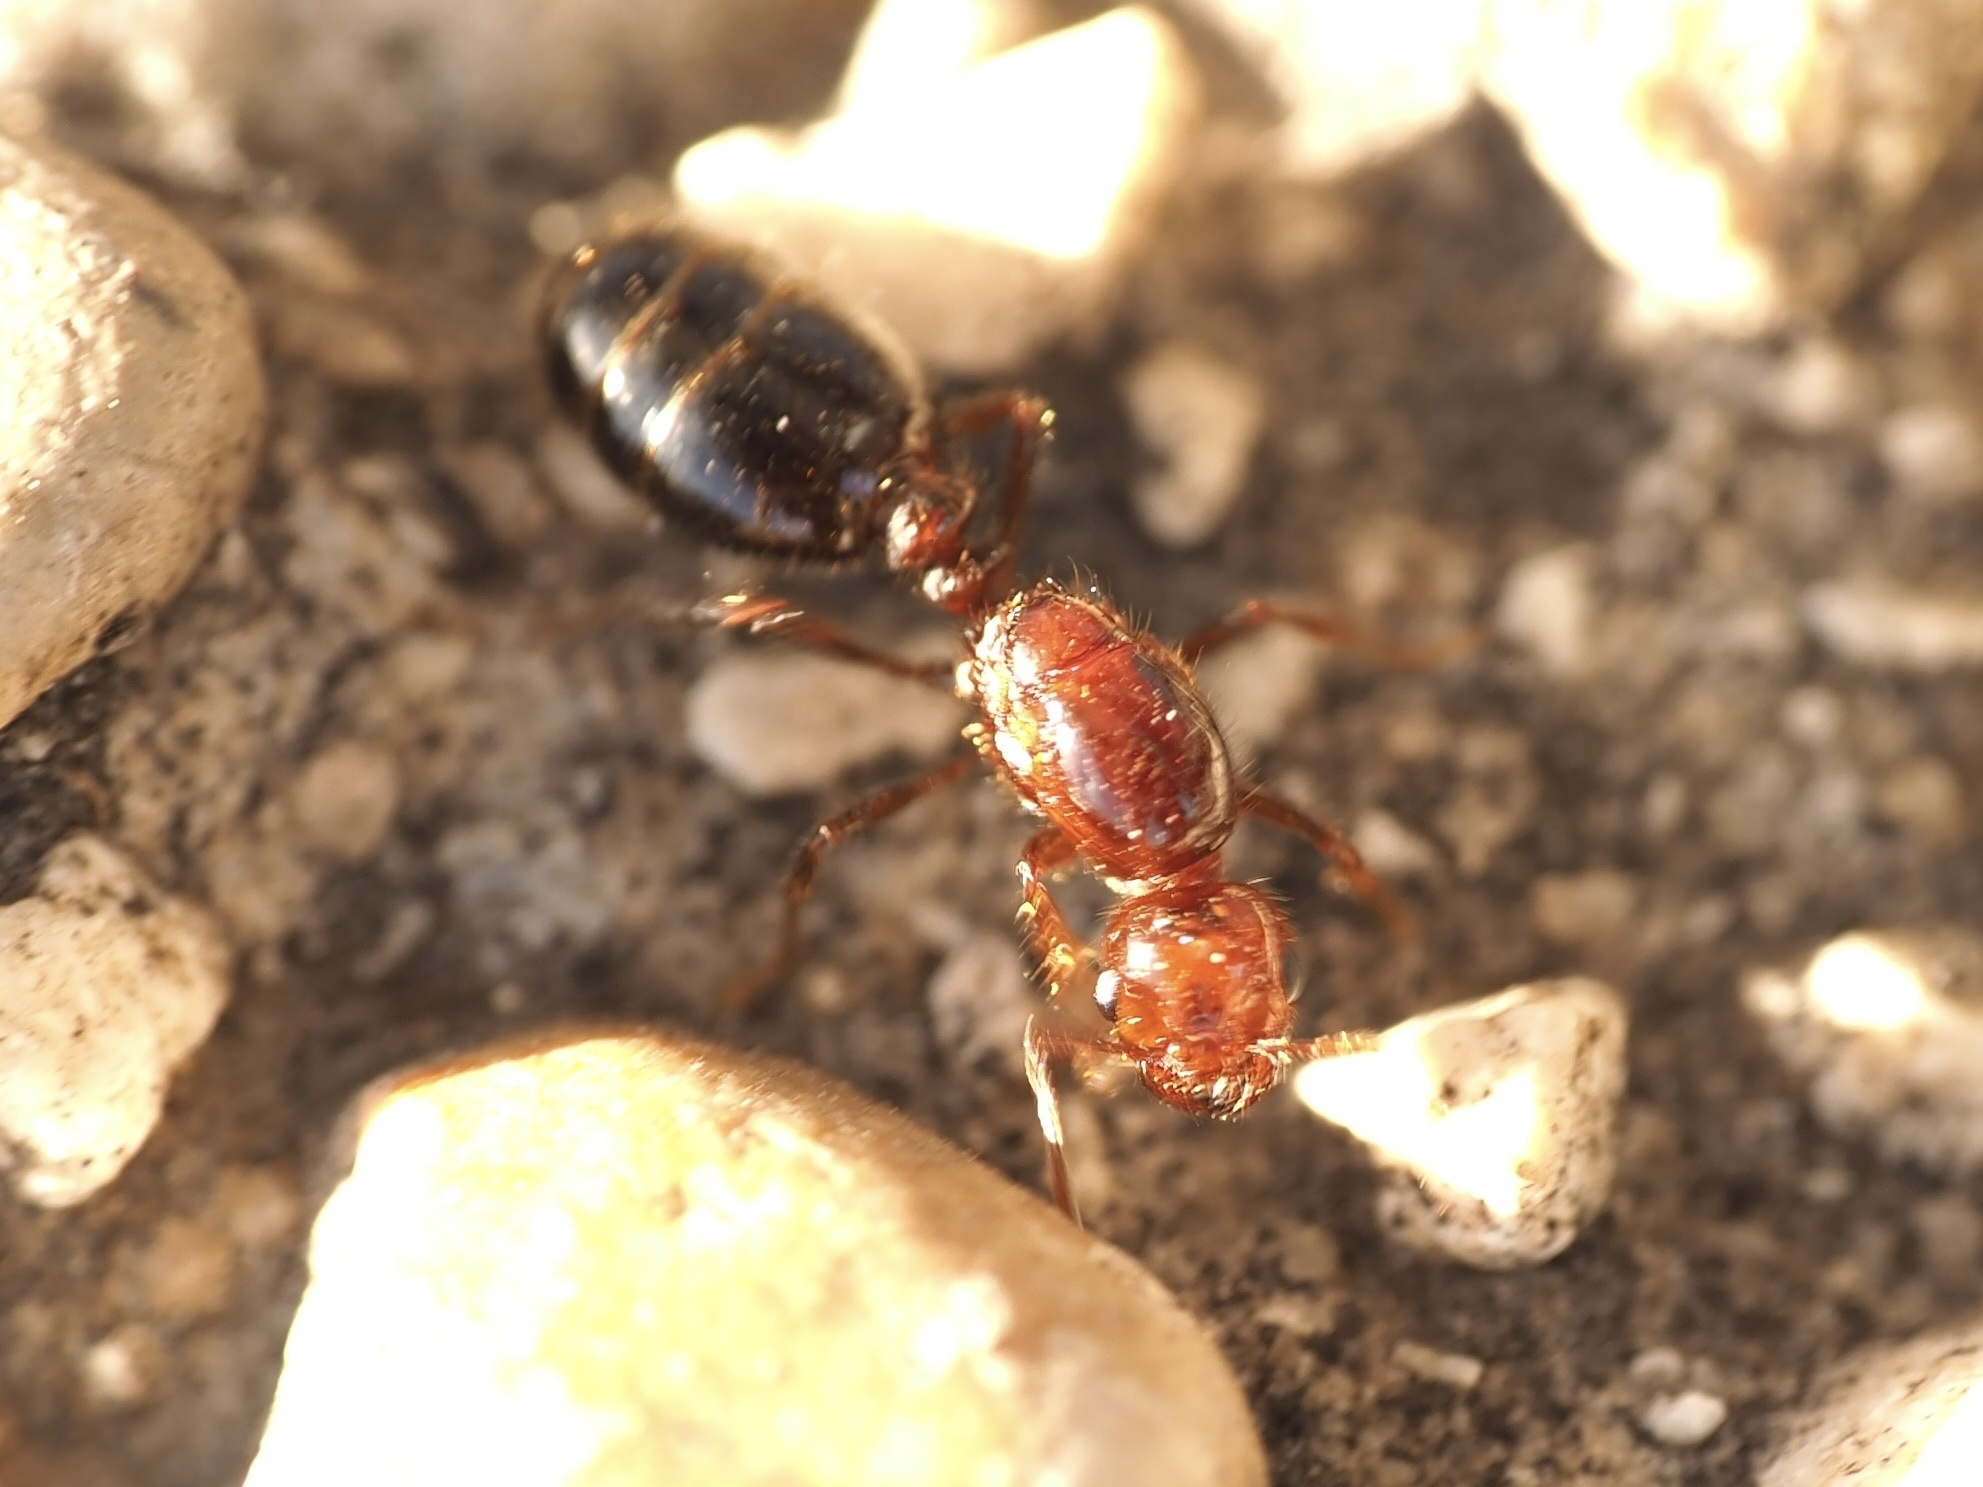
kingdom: Animalia
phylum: Arthropoda
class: Insecta
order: Hymenoptera
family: Formicidae
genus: Solenopsis
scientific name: Solenopsis invicta
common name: Red imported fire ant
